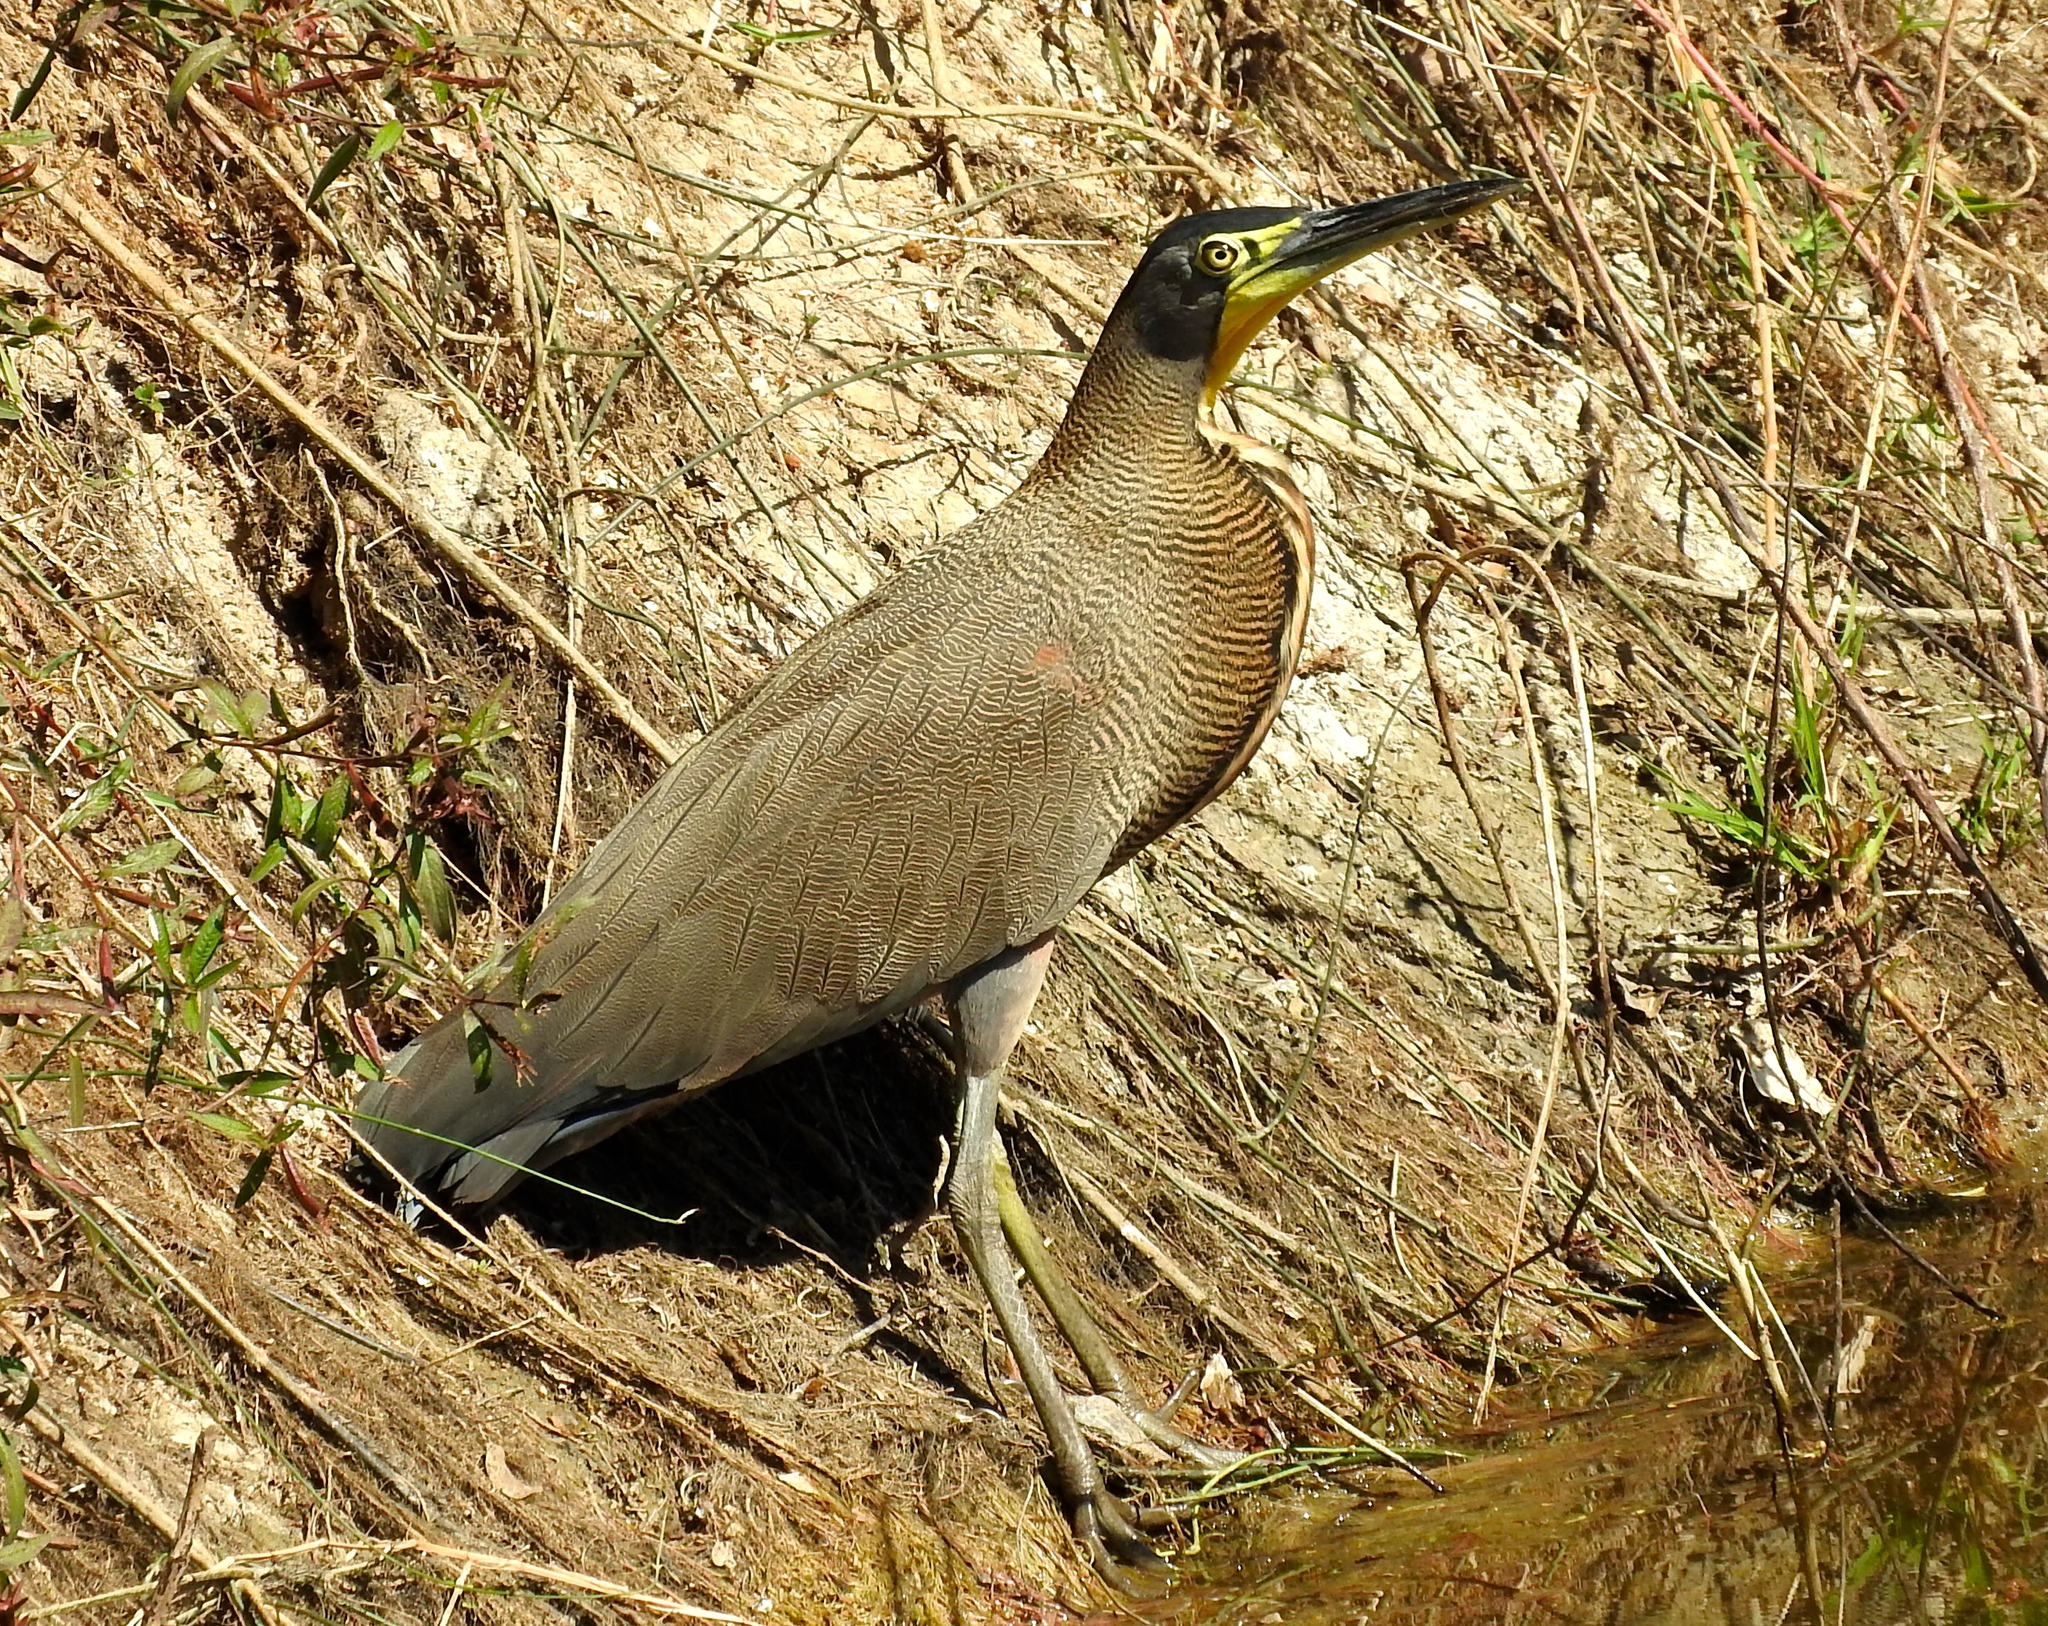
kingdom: Animalia
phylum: Chordata
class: Aves
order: Pelecaniformes
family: Ardeidae
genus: Tigrisoma
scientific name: Tigrisoma mexicanum
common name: Bare-throated tiger-heron
